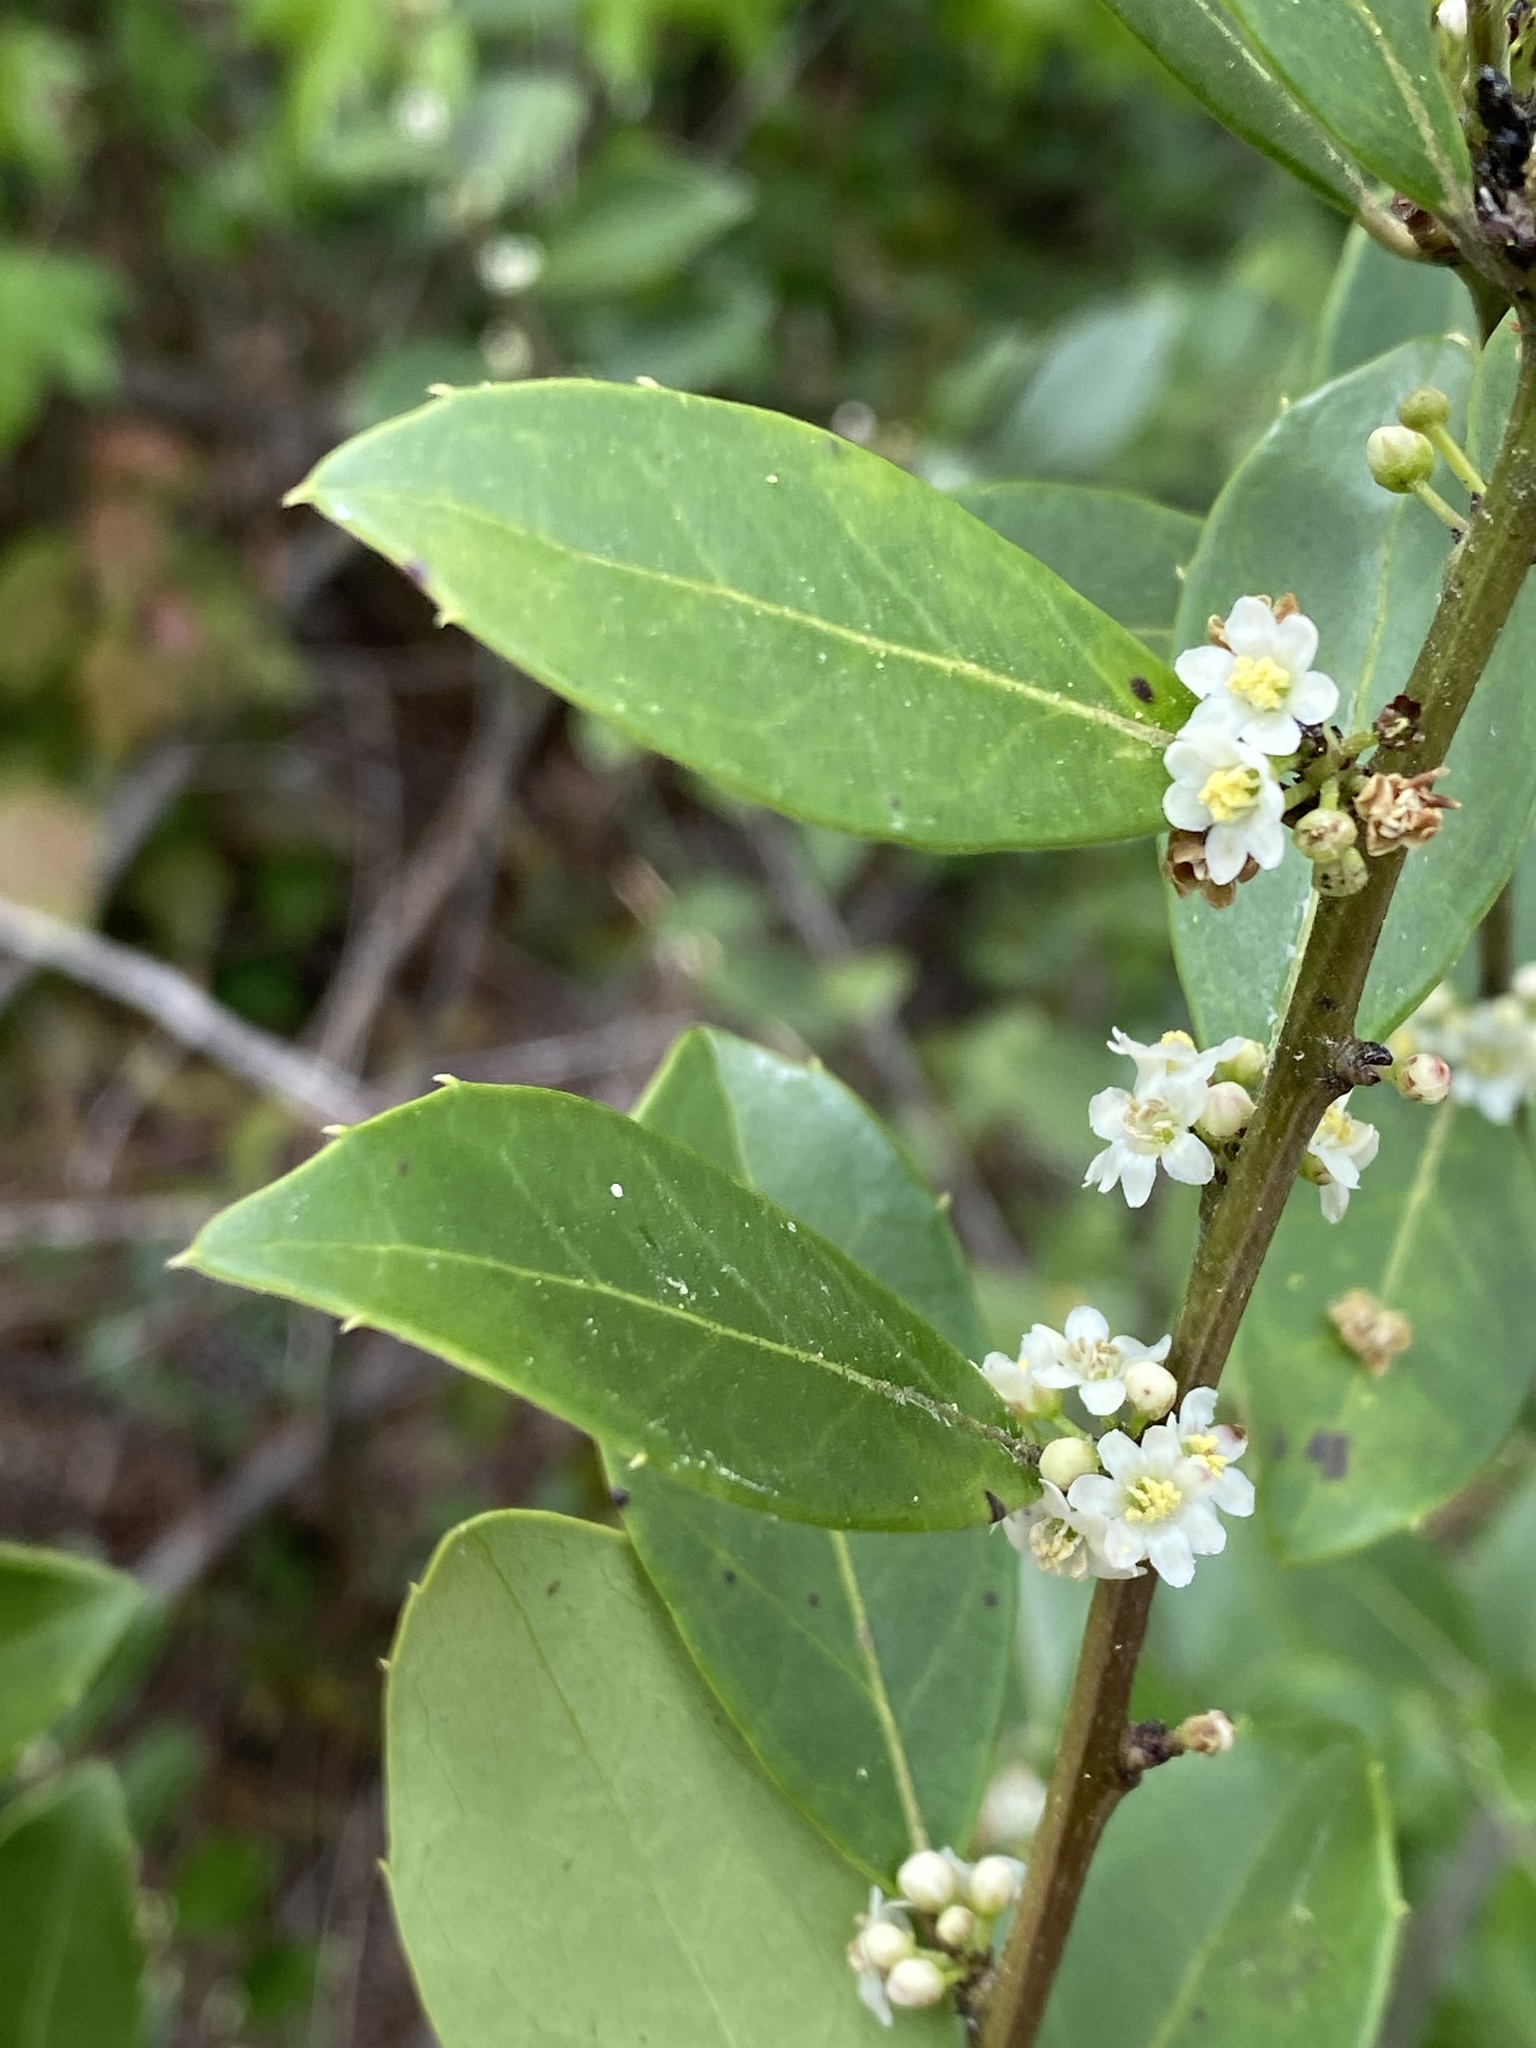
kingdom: Plantae
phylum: Tracheophyta
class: Magnoliopsida
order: Aquifoliales
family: Aquifoliaceae
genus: Ilex
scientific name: Ilex coriacea
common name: Sweet gallberry
